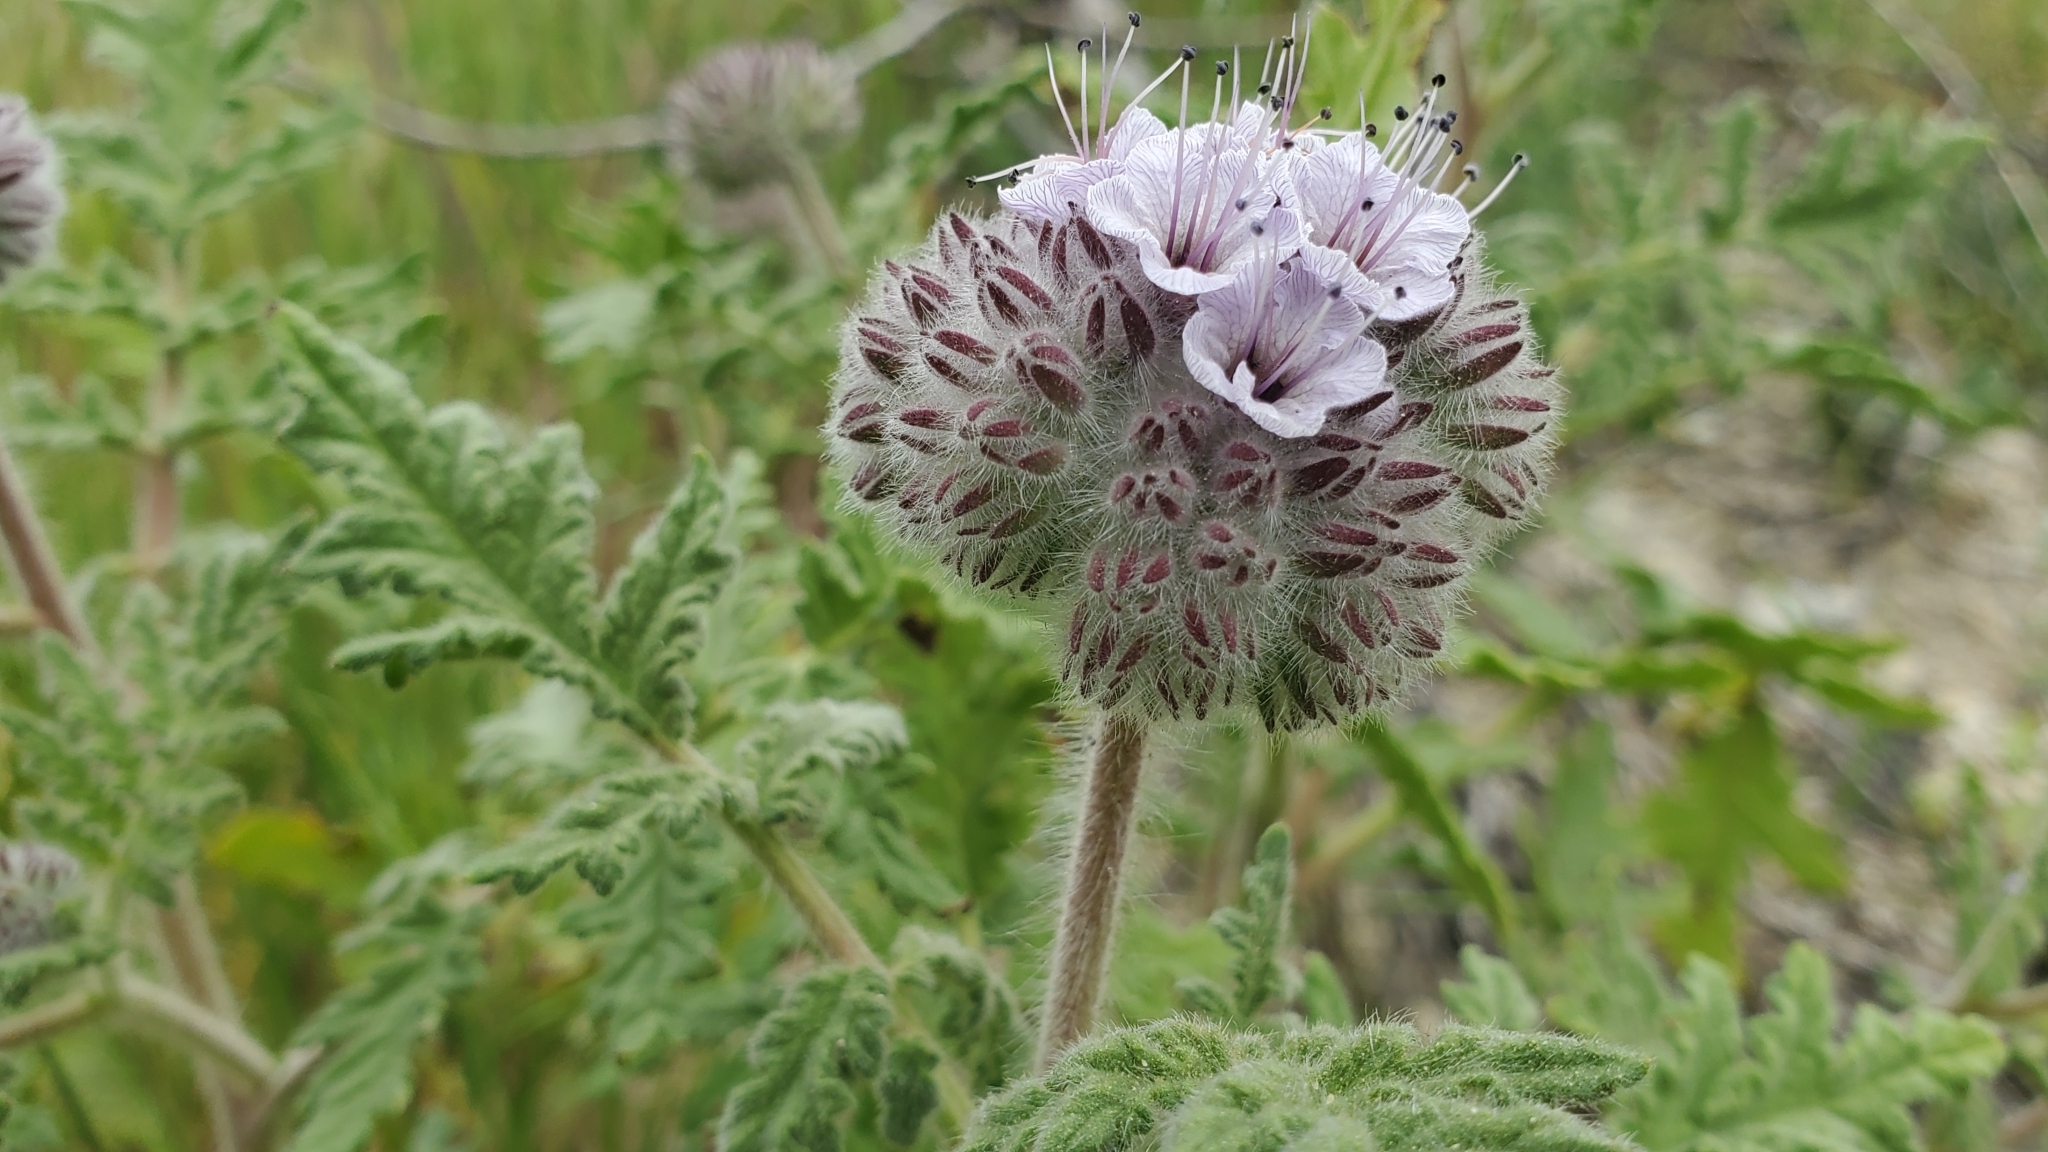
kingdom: Plantae
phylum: Tracheophyta
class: Magnoliopsida
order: Boraginales
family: Hydrophyllaceae
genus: Phacelia
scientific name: Phacelia hubbyi
